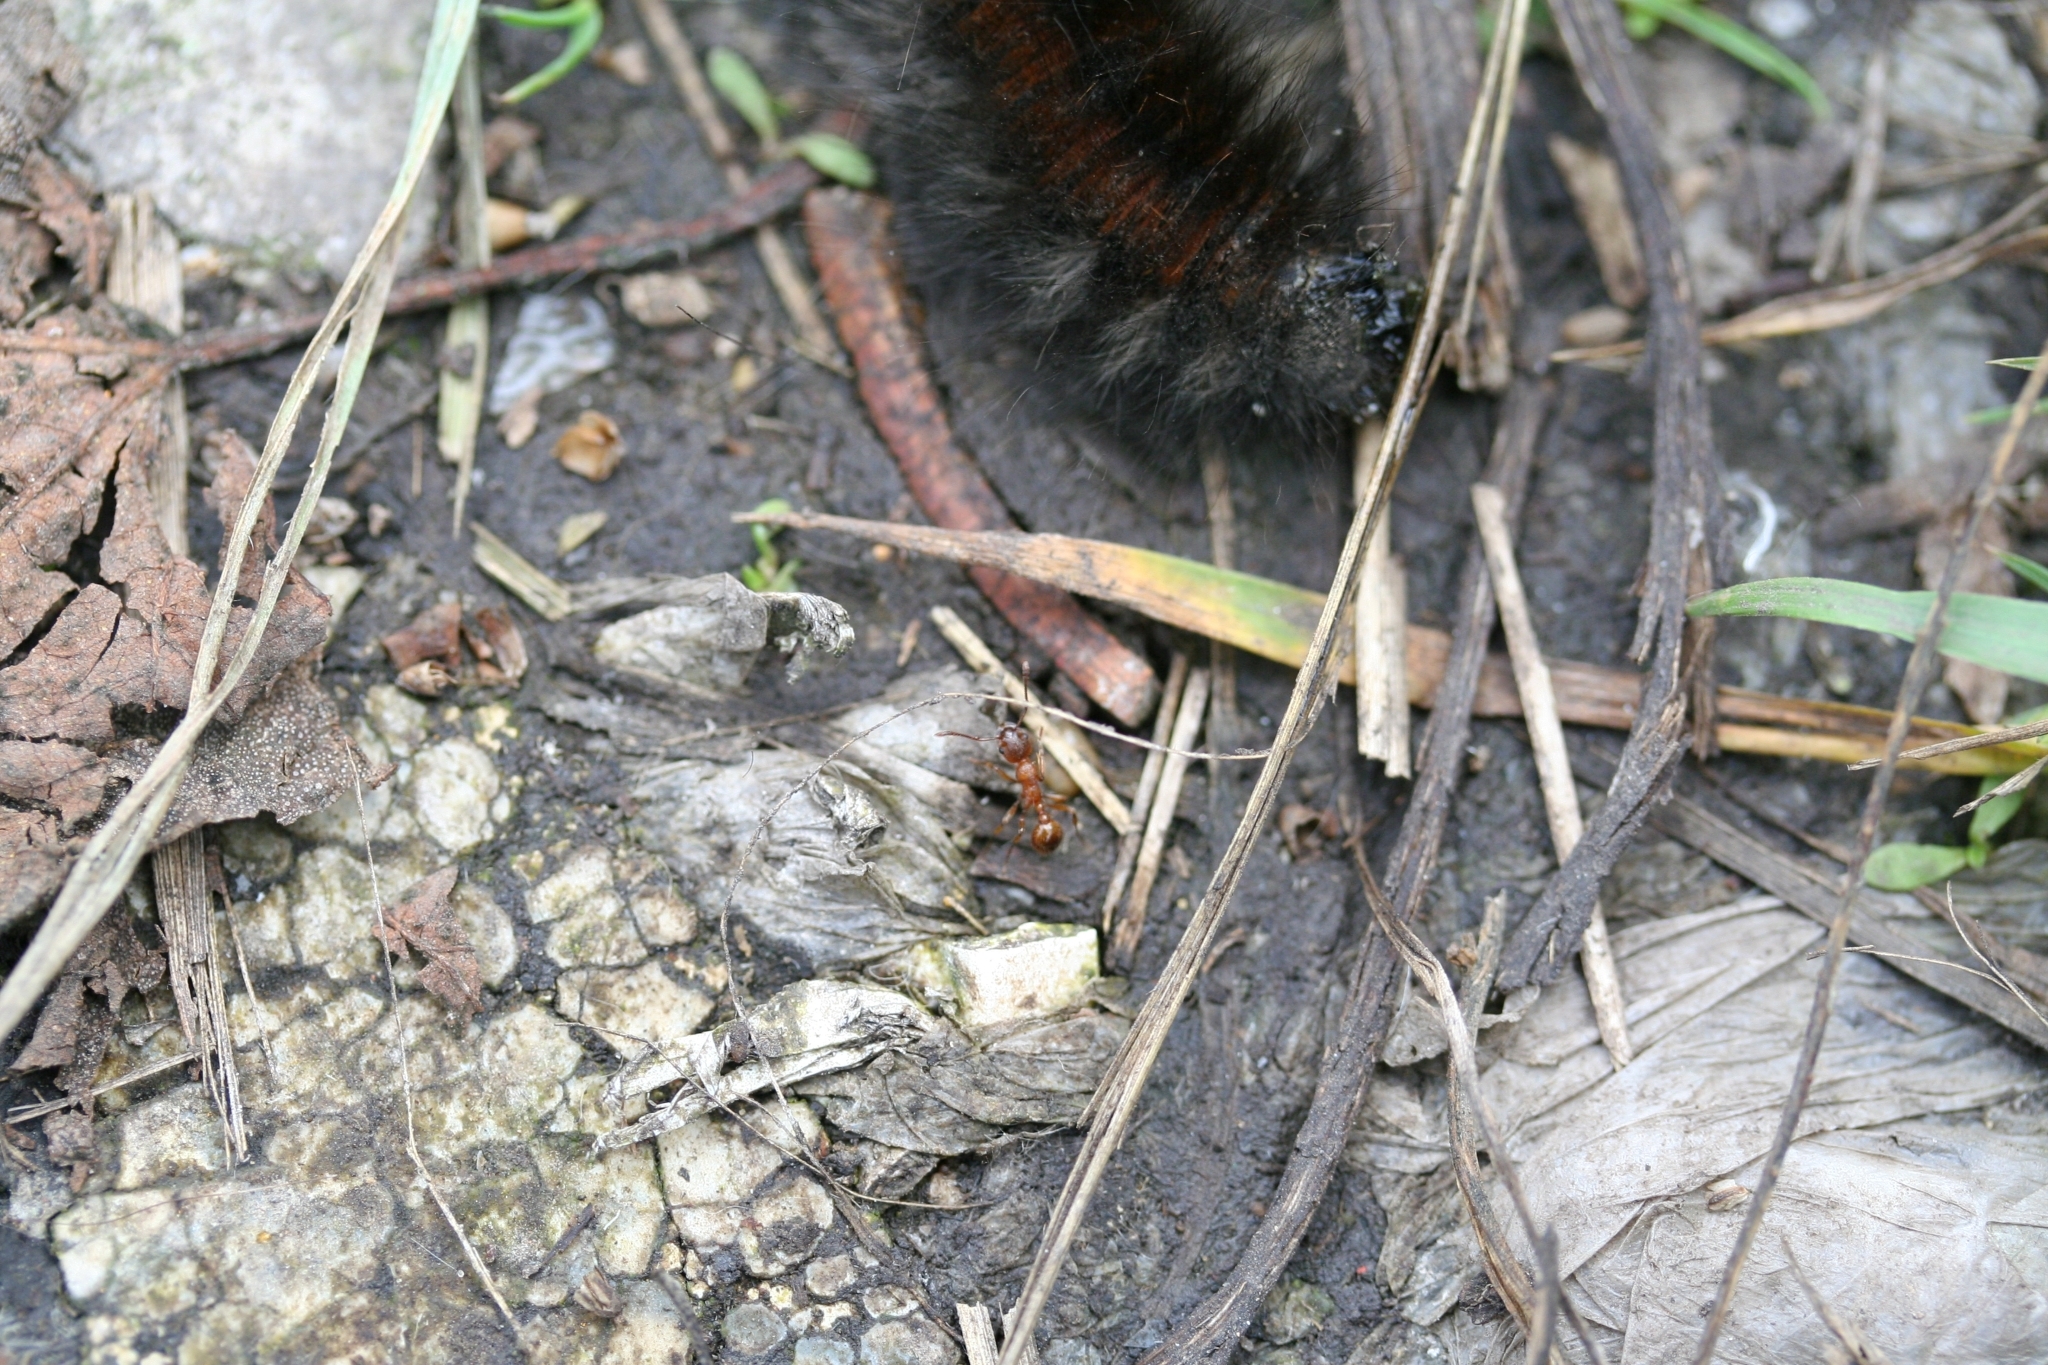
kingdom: Animalia
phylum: Arthropoda
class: Insecta
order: Lepidoptera
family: Lasiocampidae
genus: Macrothylacia
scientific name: Macrothylacia rubi
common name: Fox moth
